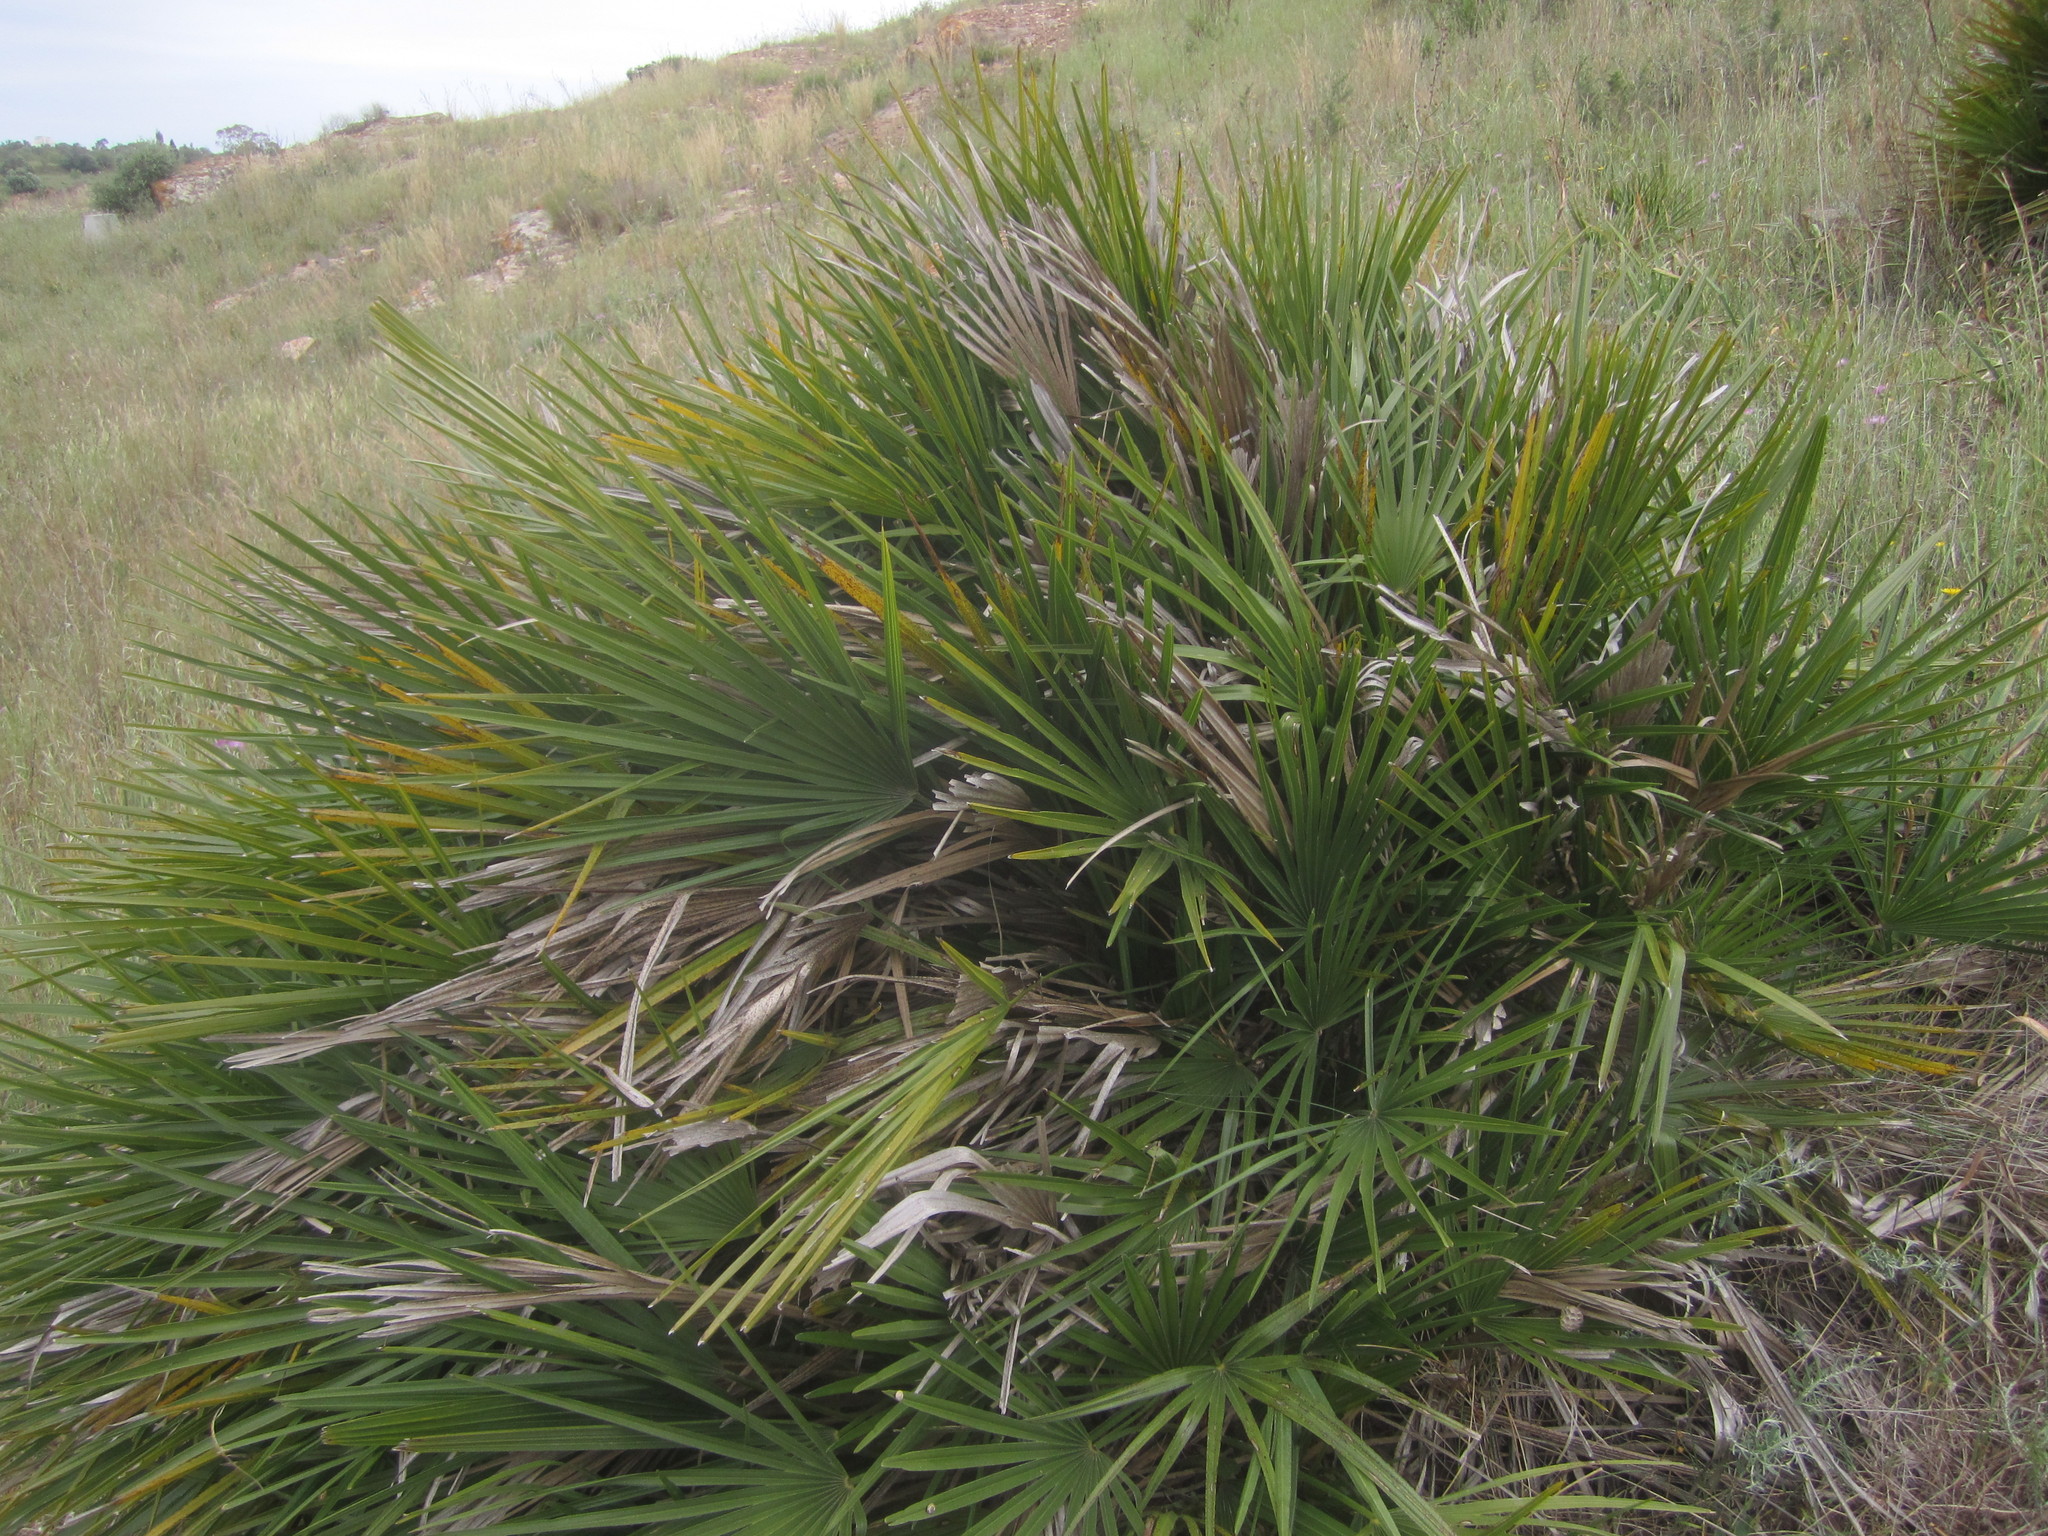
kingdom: Plantae
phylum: Tracheophyta
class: Liliopsida
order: Arecales
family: Arecaceae
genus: Chamaerops
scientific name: Chamaerops humilis
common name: Dwarf fan palm
